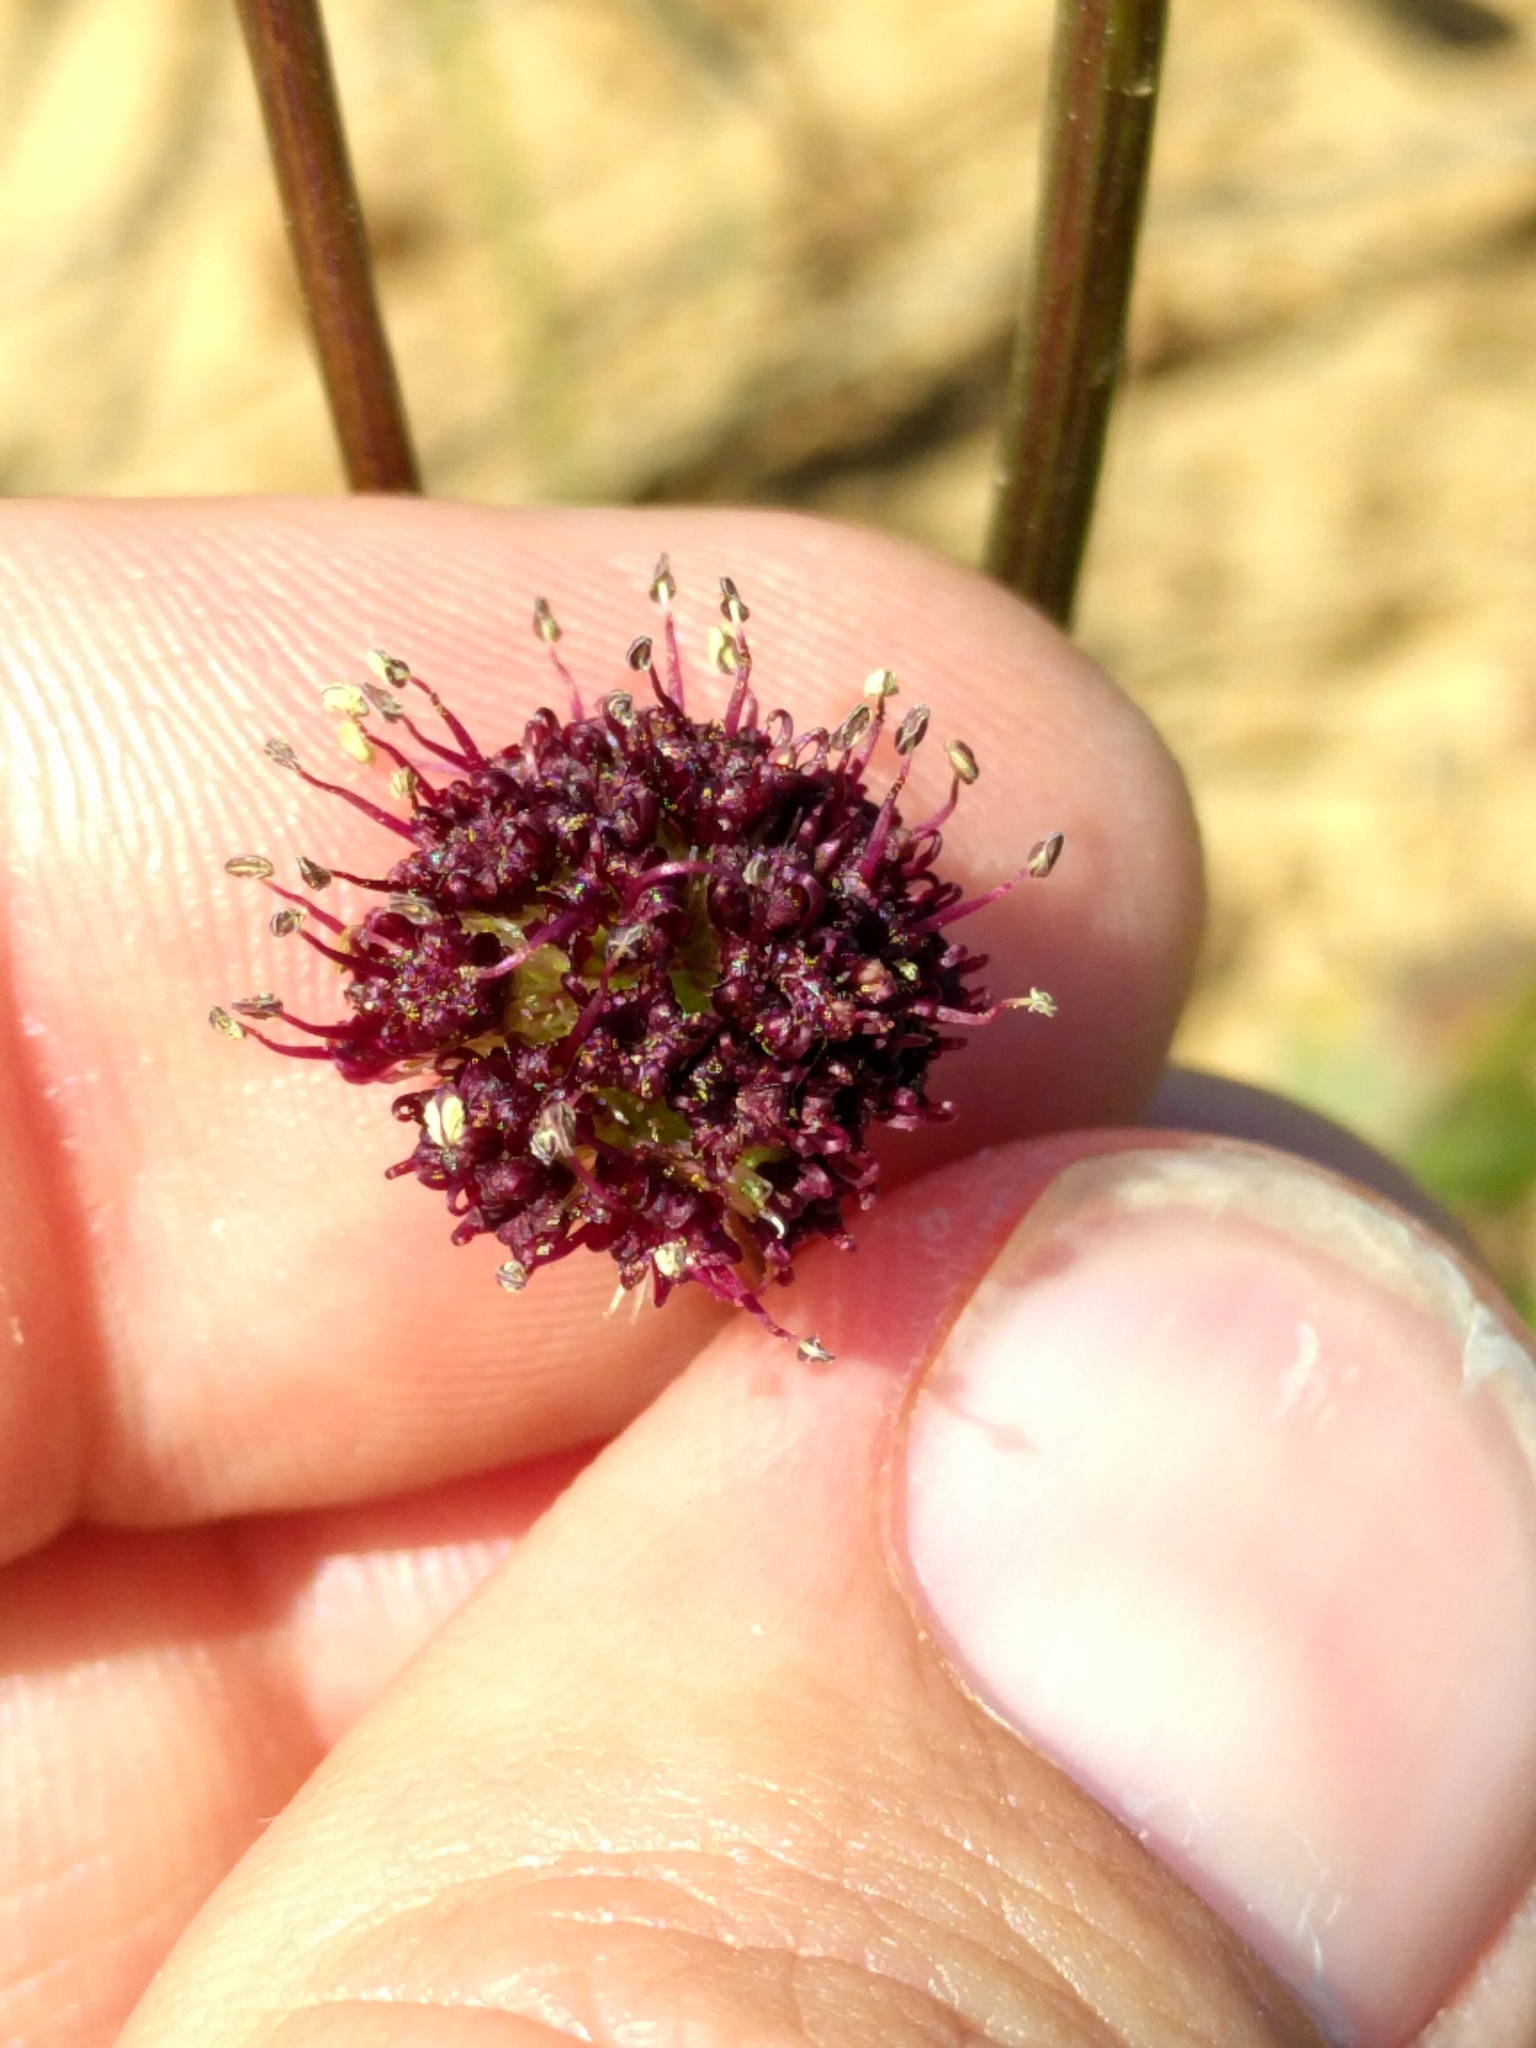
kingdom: Plantae
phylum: Tracheophyta
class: Magnoliopsida
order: Apiales
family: Apiaceae
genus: Sanicula
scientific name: Sanicula bipinnatifida
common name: Shoe-buttons
